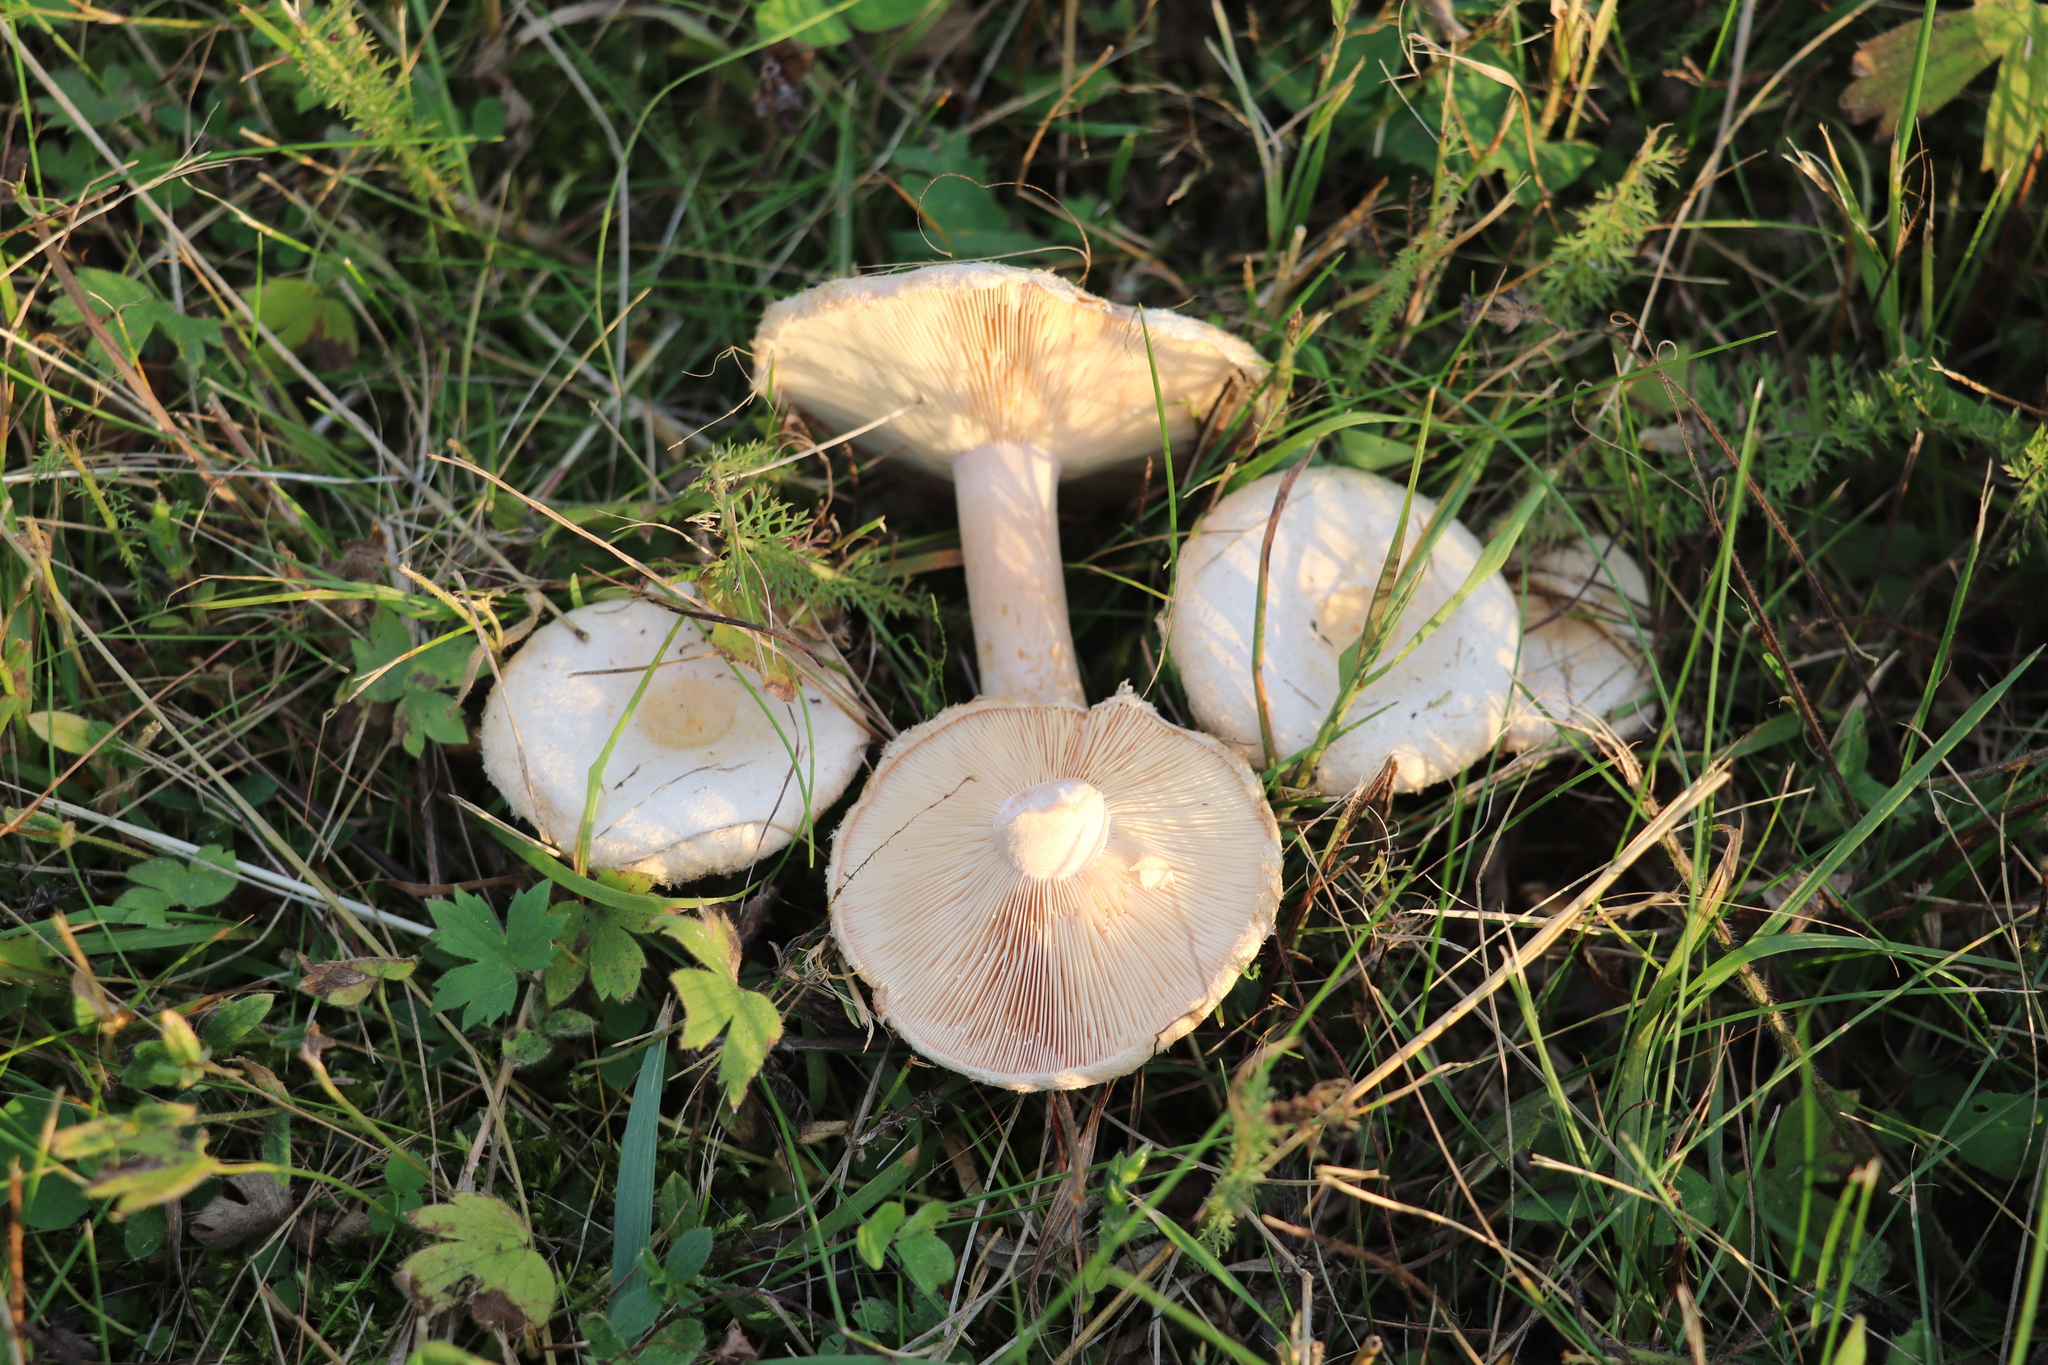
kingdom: Fungi
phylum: Basidiomycota
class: Agaricomycetes
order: Russulales
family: Russulaceae
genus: Lactarius
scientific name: Lactarius pubescens
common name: Bearded milkcap
